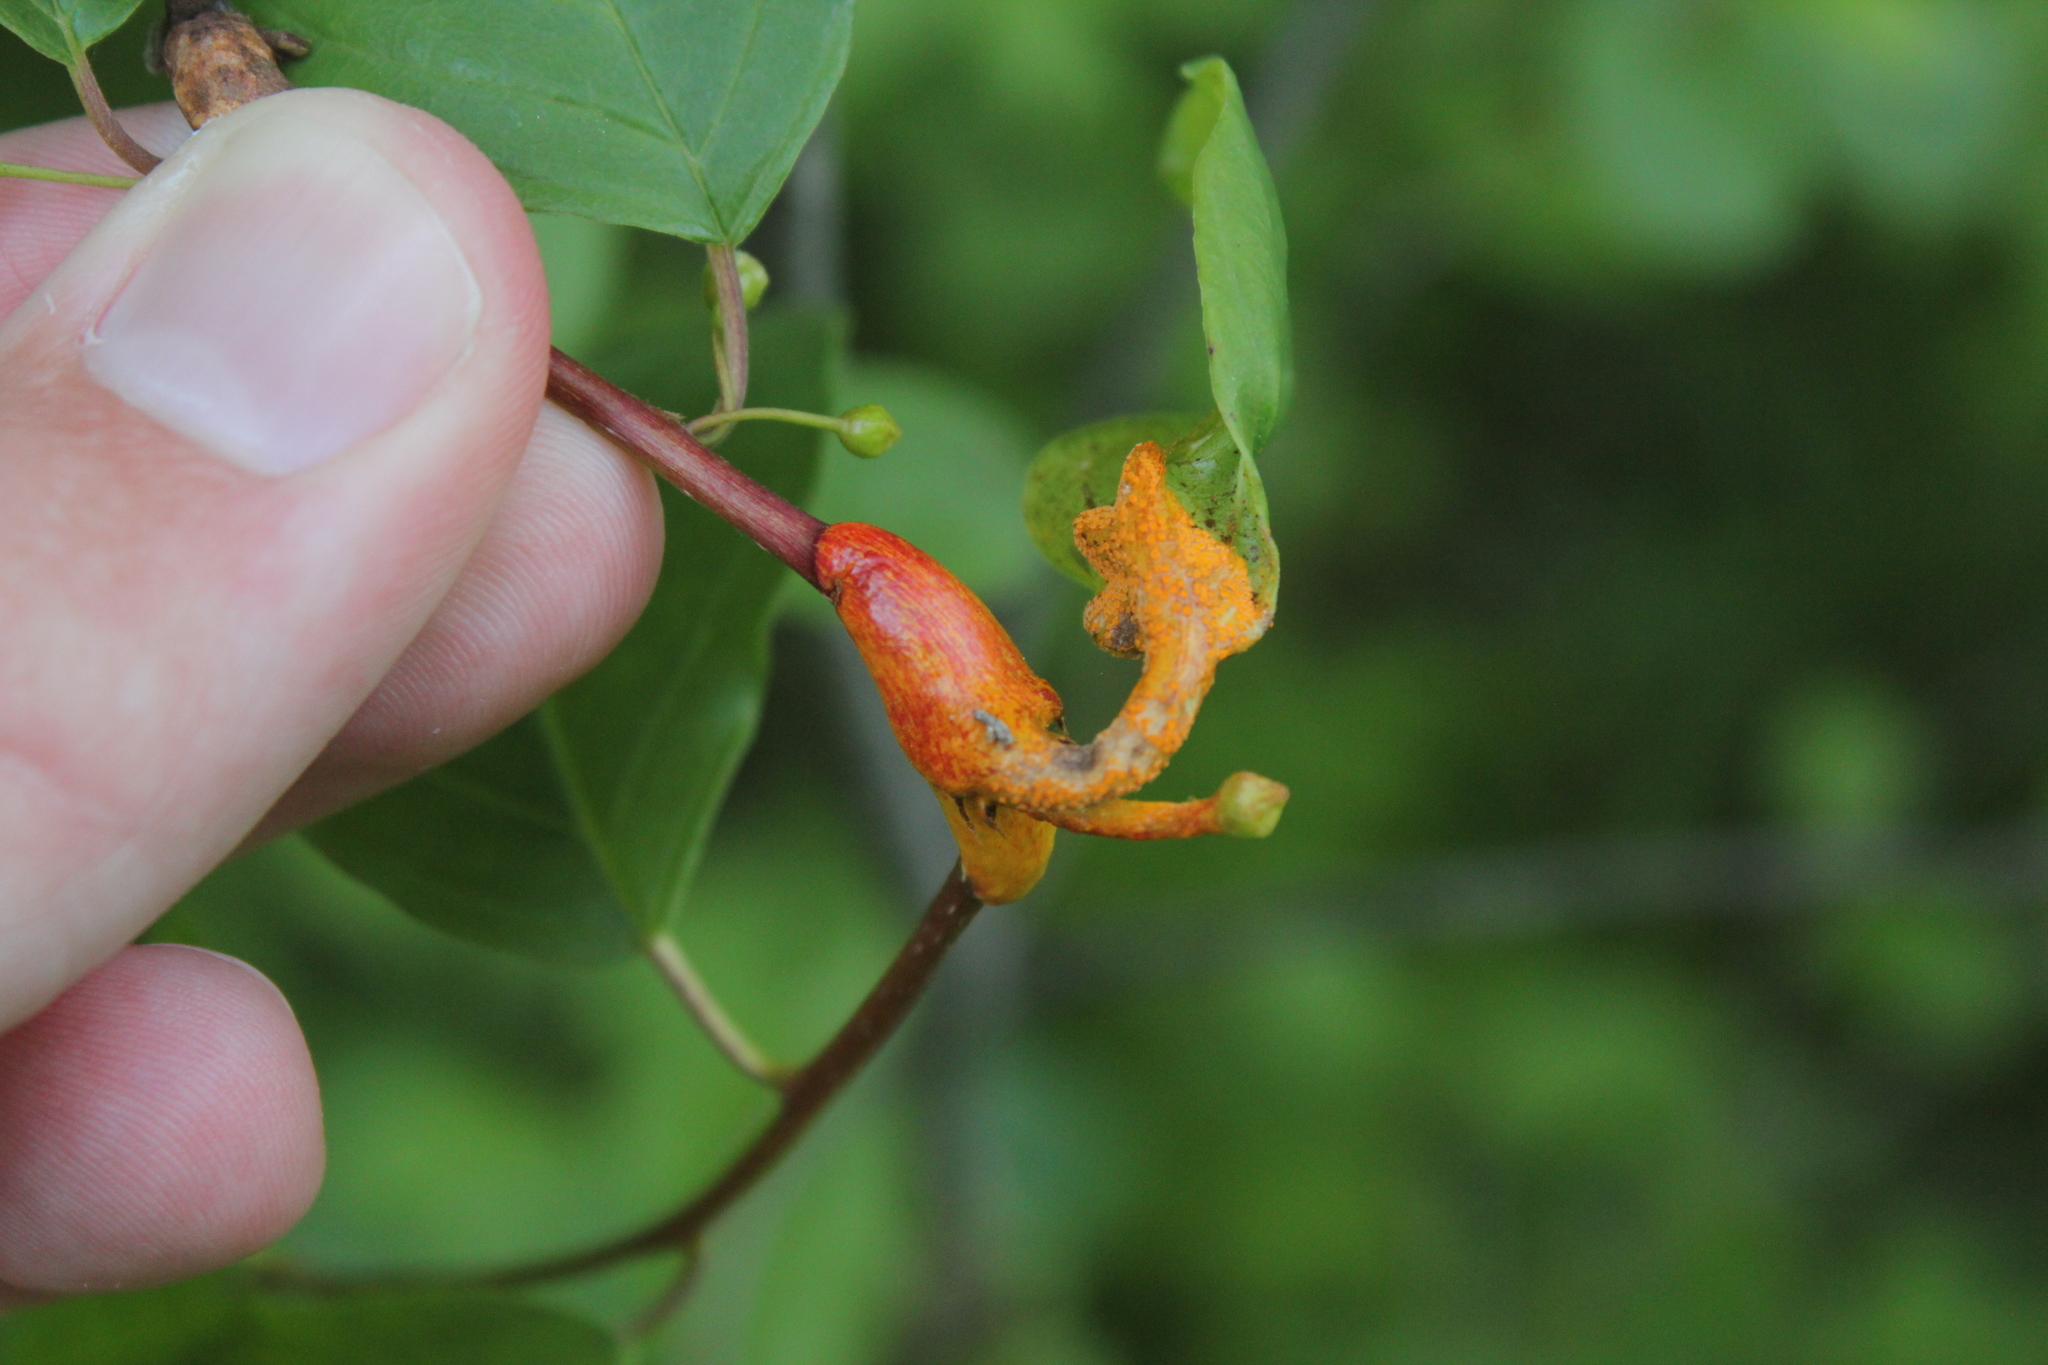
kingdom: Fungi
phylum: Basidiomycota
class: Pucciniomycetes
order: Pucciniales
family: Pucciniaceae
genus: Puccinia
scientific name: Puccinia coronata
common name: Crown rust
